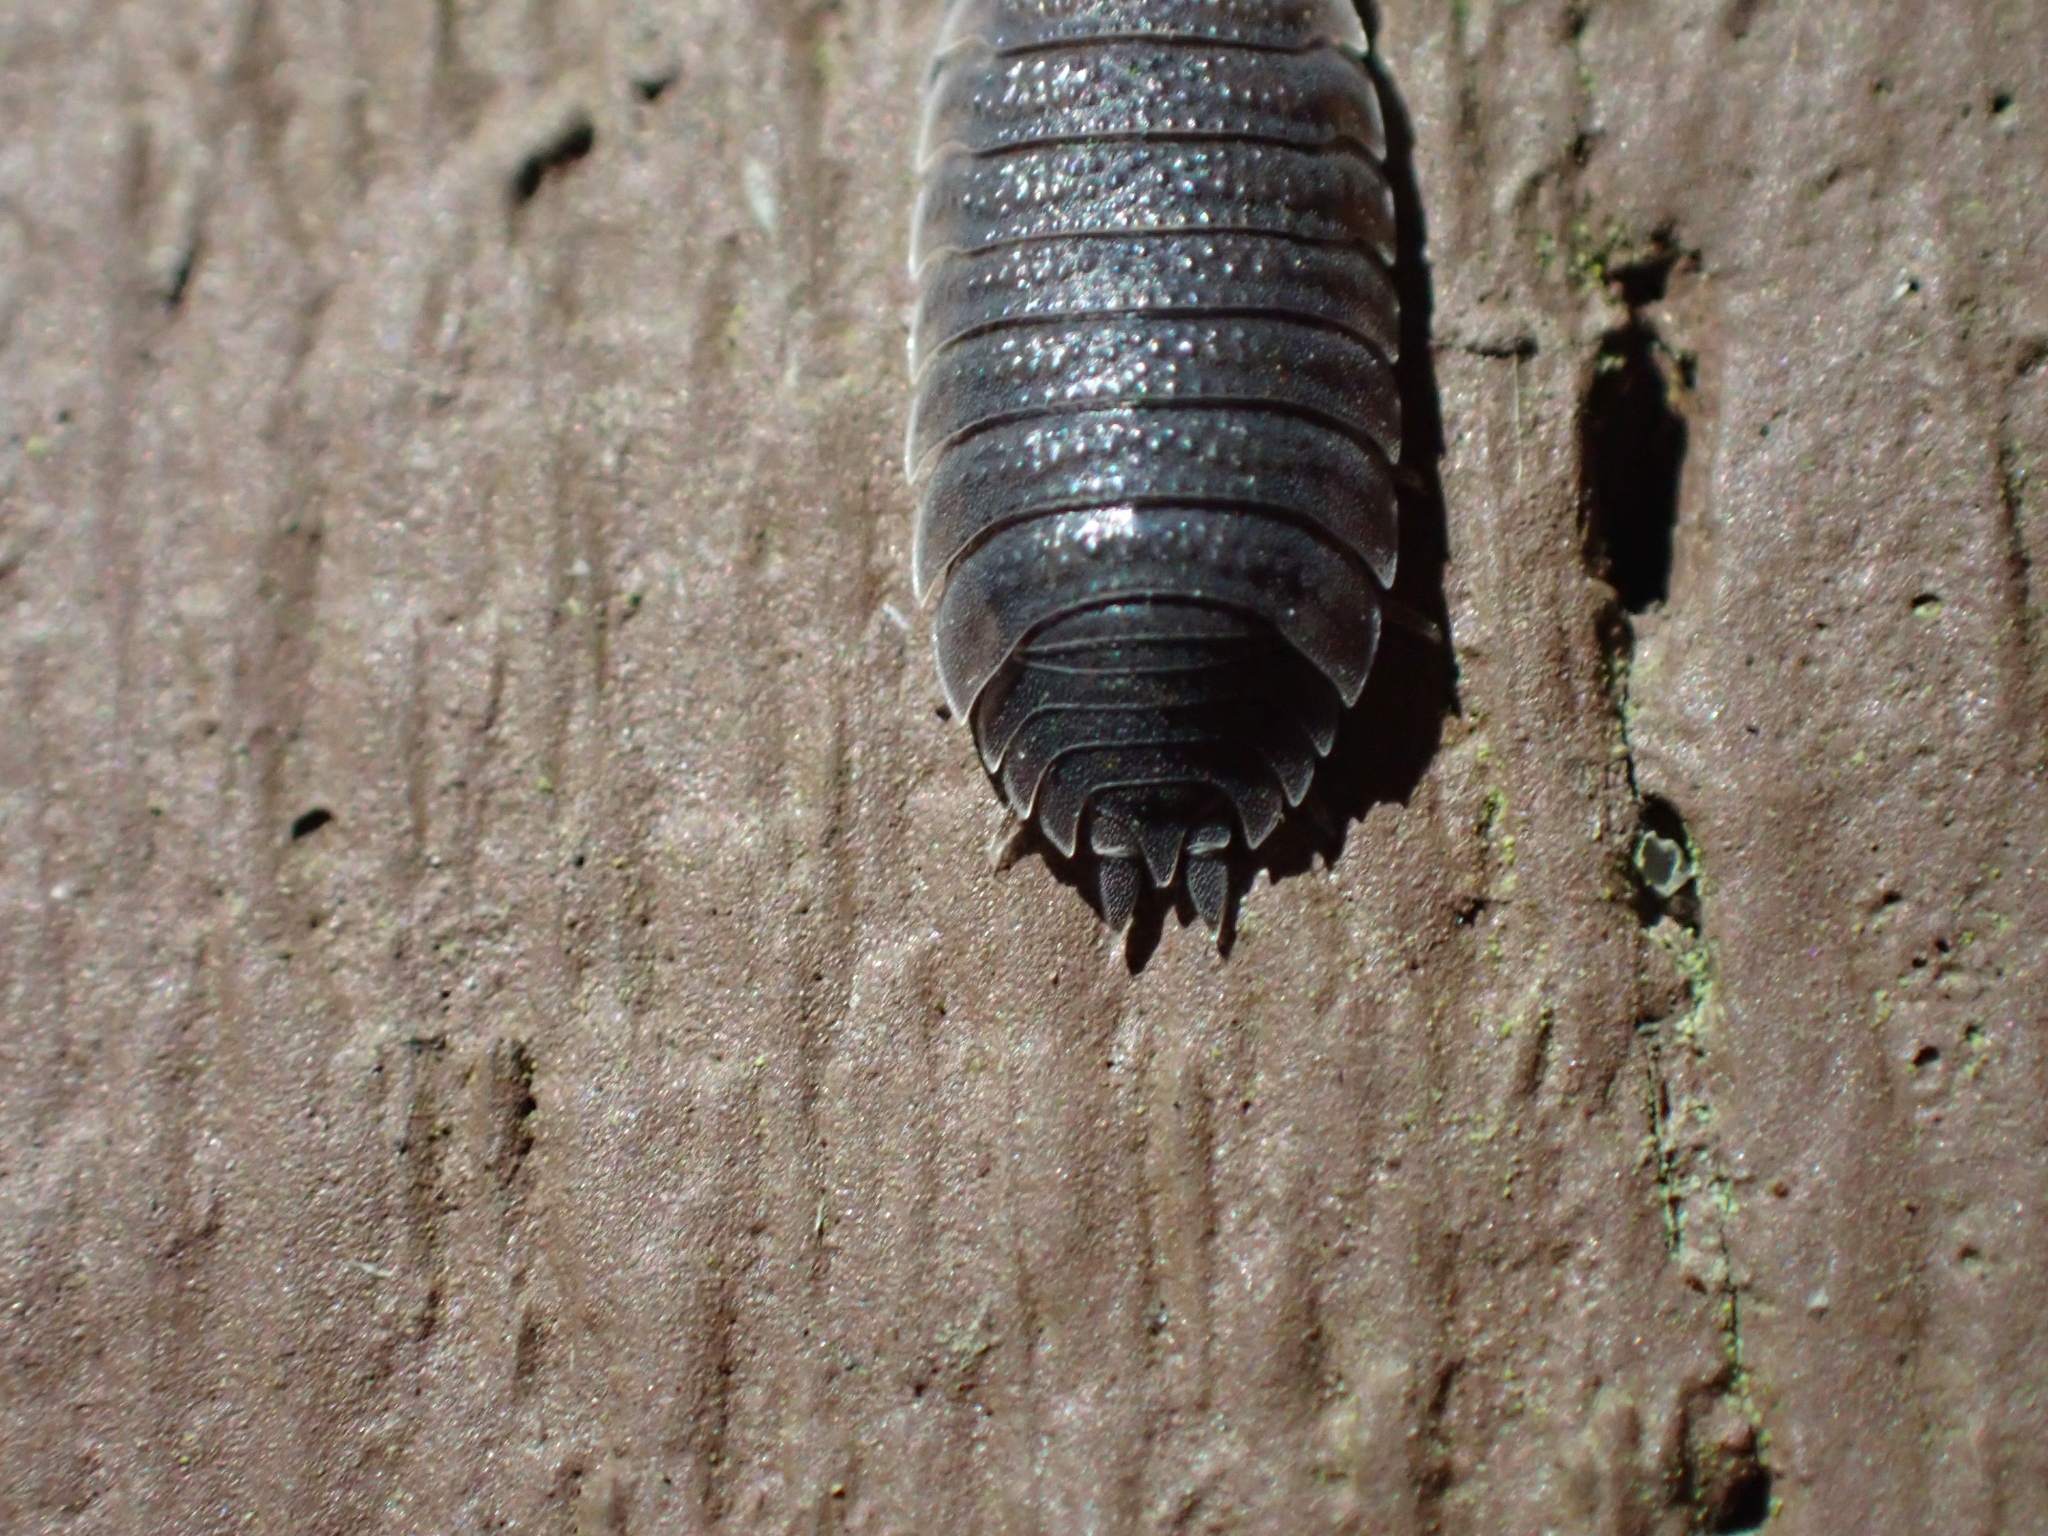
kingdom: Animalia
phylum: Arthropoda
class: Malacostraca
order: Isopoda
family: Porcellionidae
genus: Porcellio
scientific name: Porcellio scaber
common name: Common rough woodlouse
